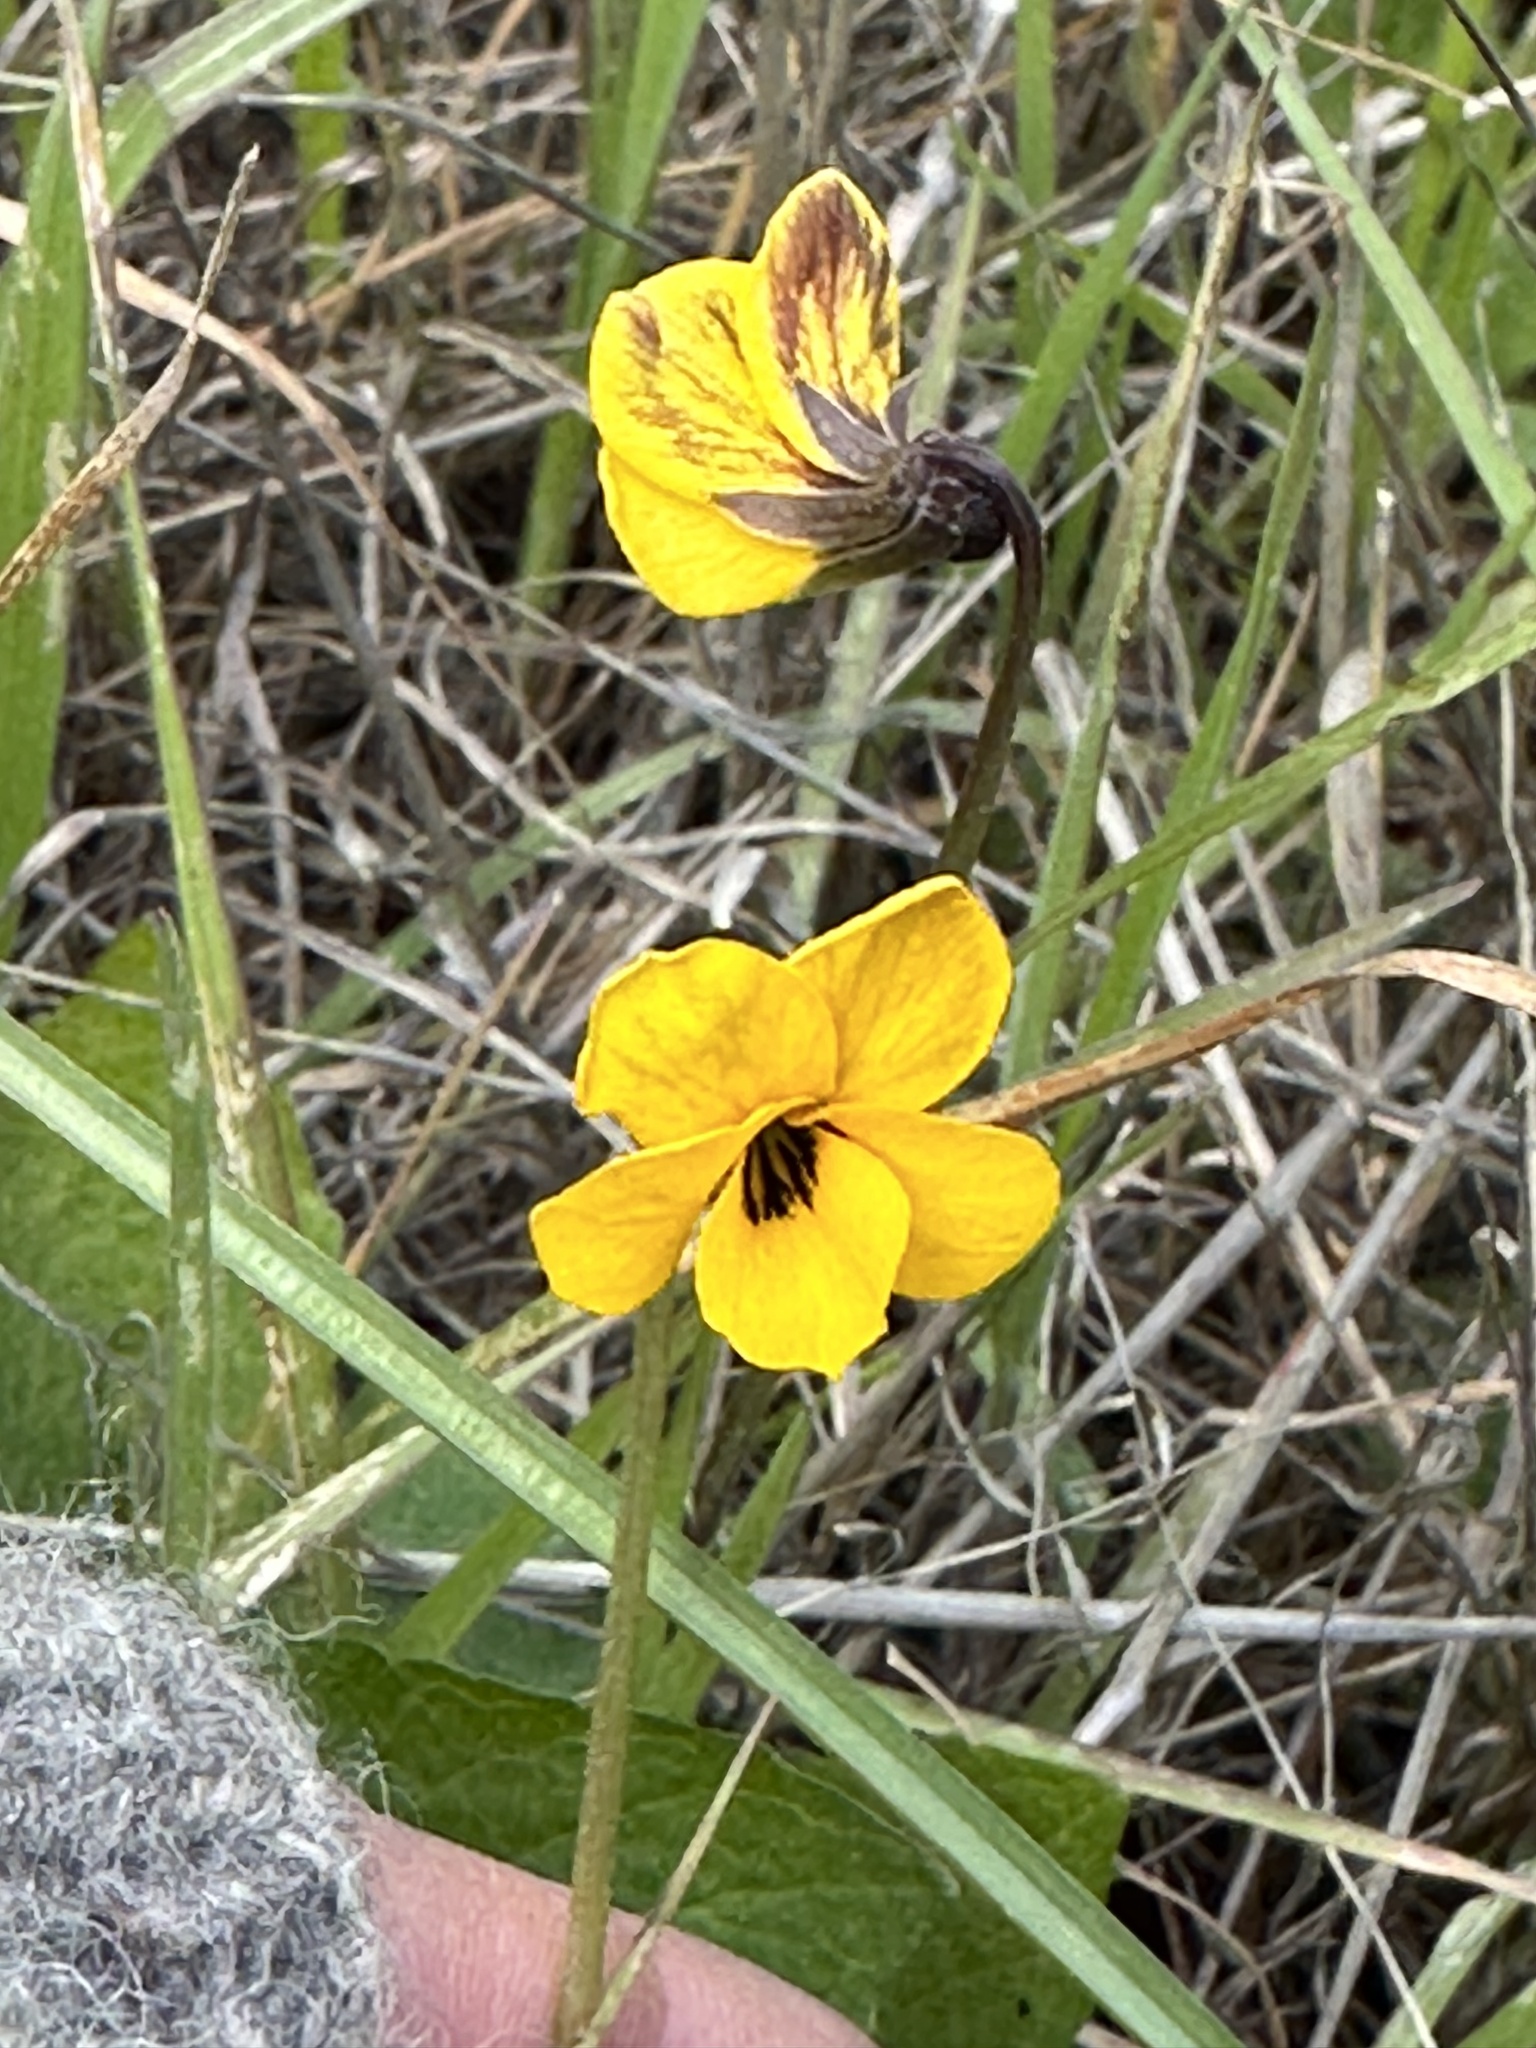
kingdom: Plantae
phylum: Tracheophyta
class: Magnoliopsida
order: Malpighiales
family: Violaceae
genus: Viola
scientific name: Viola pedunculata
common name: California golden violet
